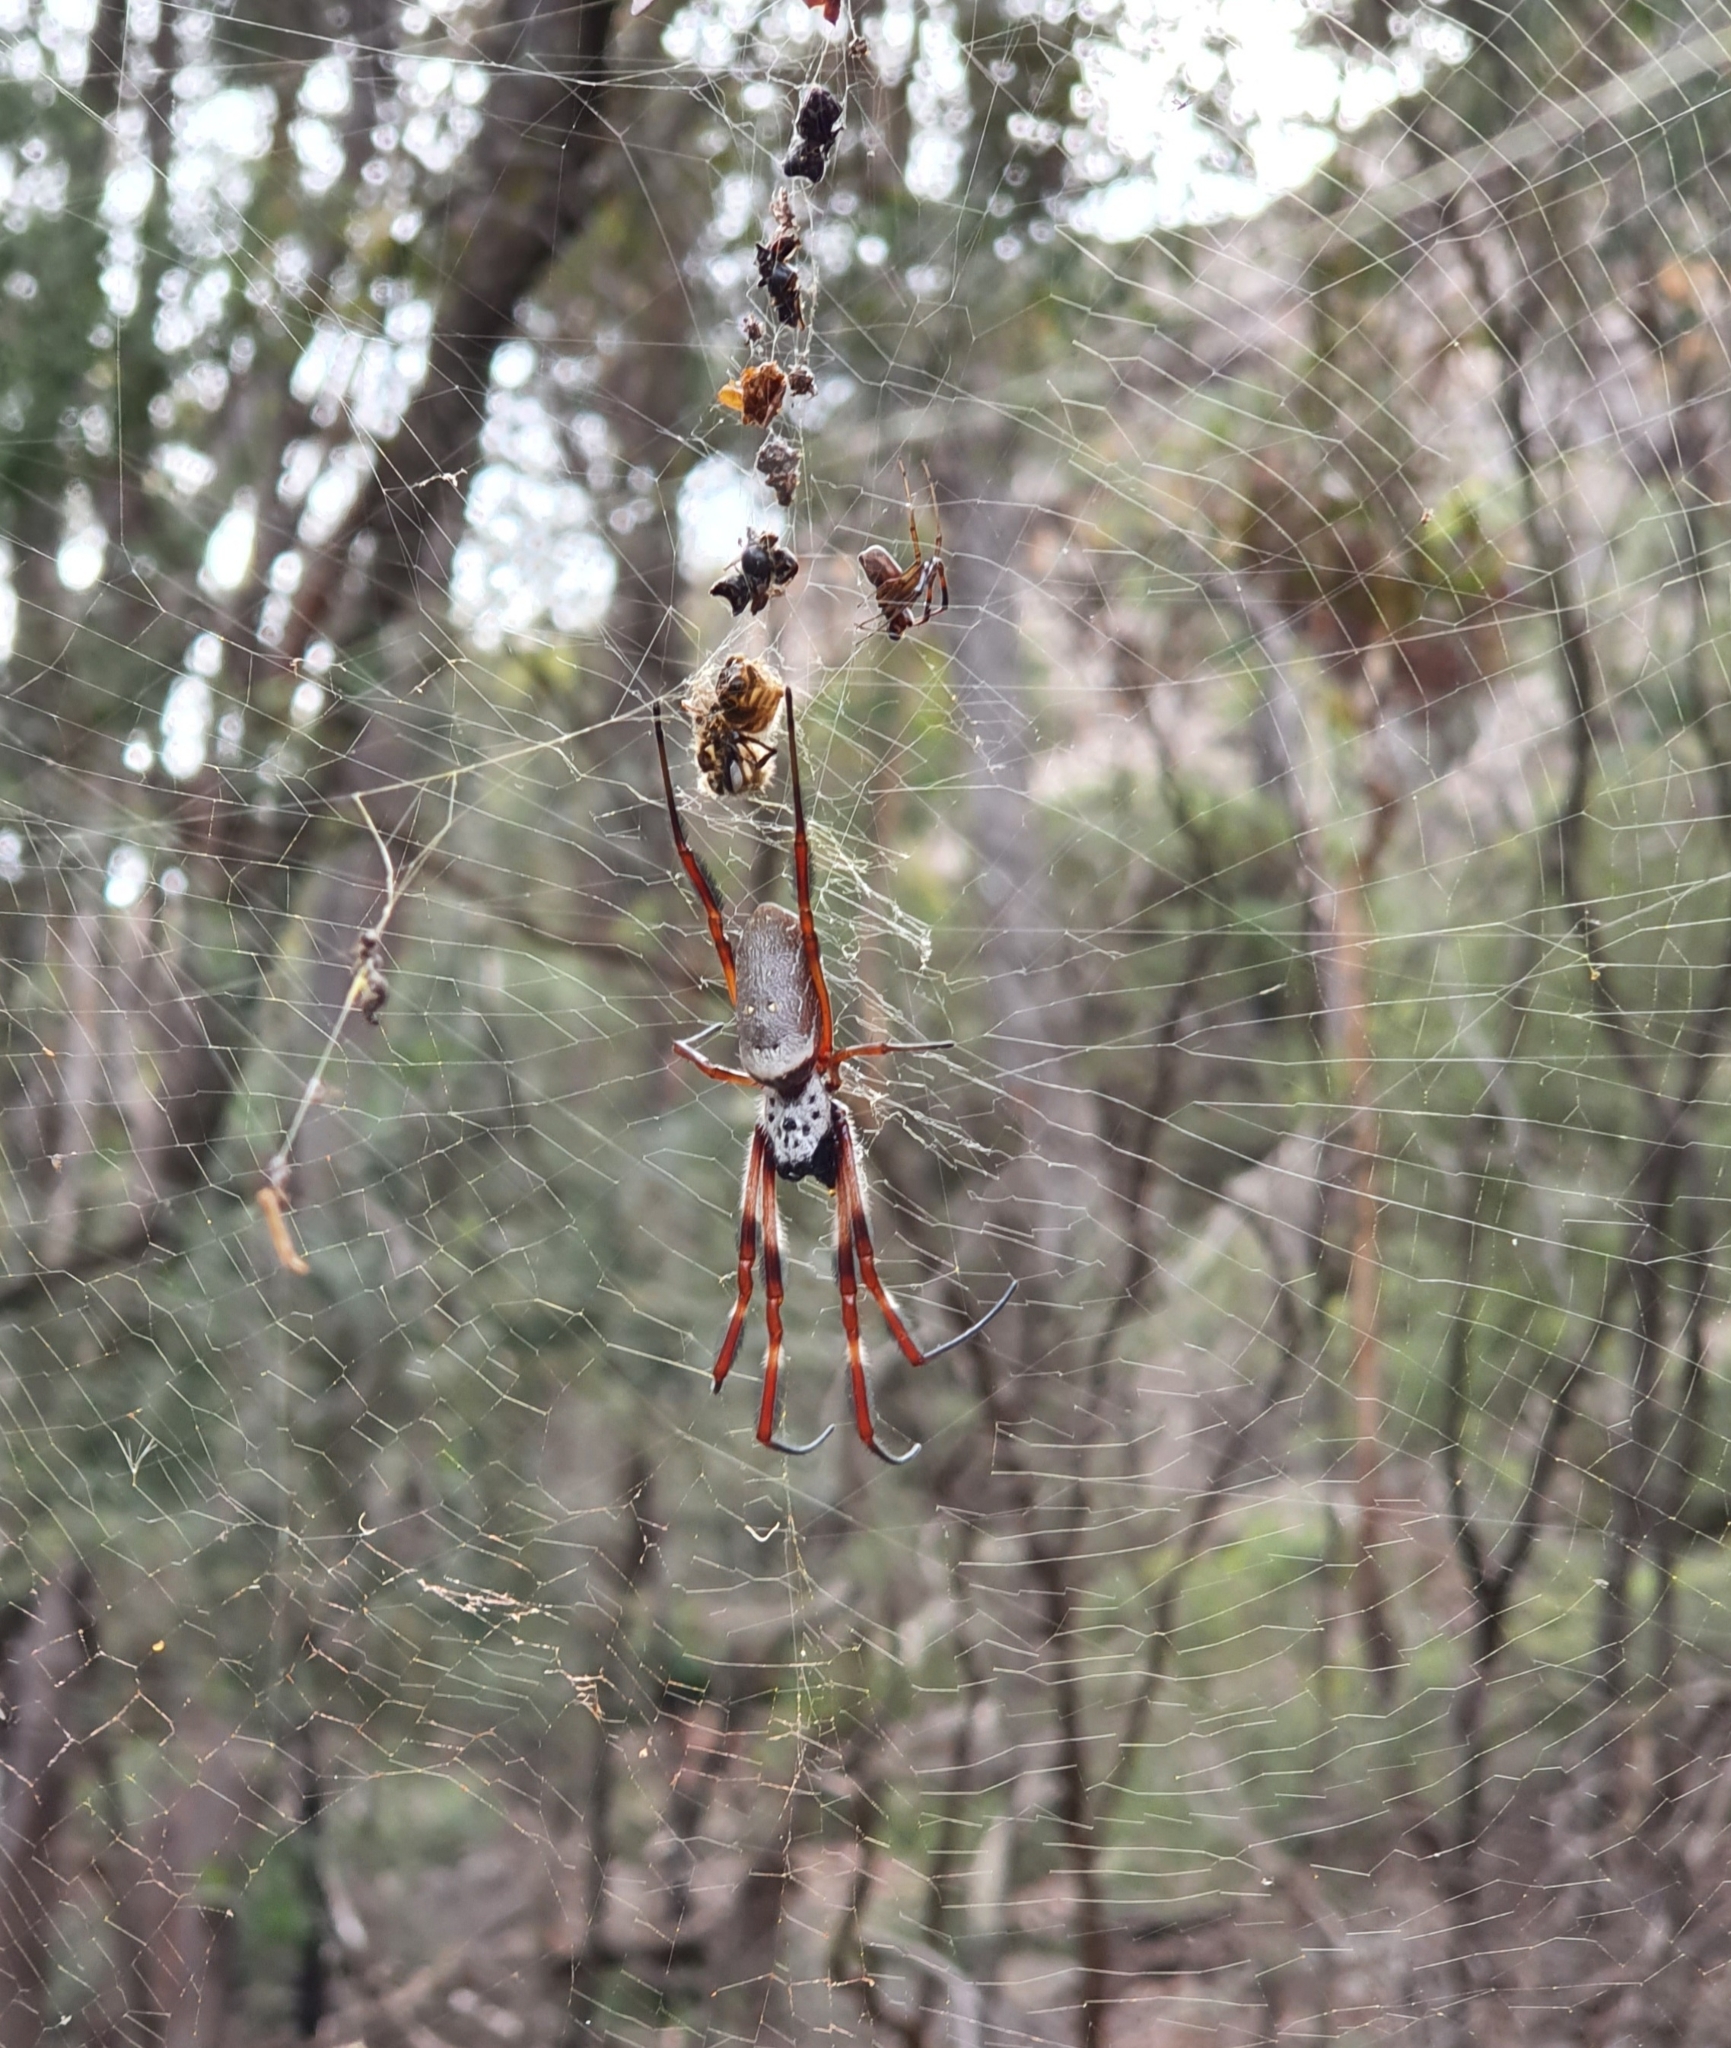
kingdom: Animalia
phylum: Arthropoda
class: Arachnida
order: Araneae
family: Araneidae
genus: Trichonephila
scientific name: Trichonephila edulis
